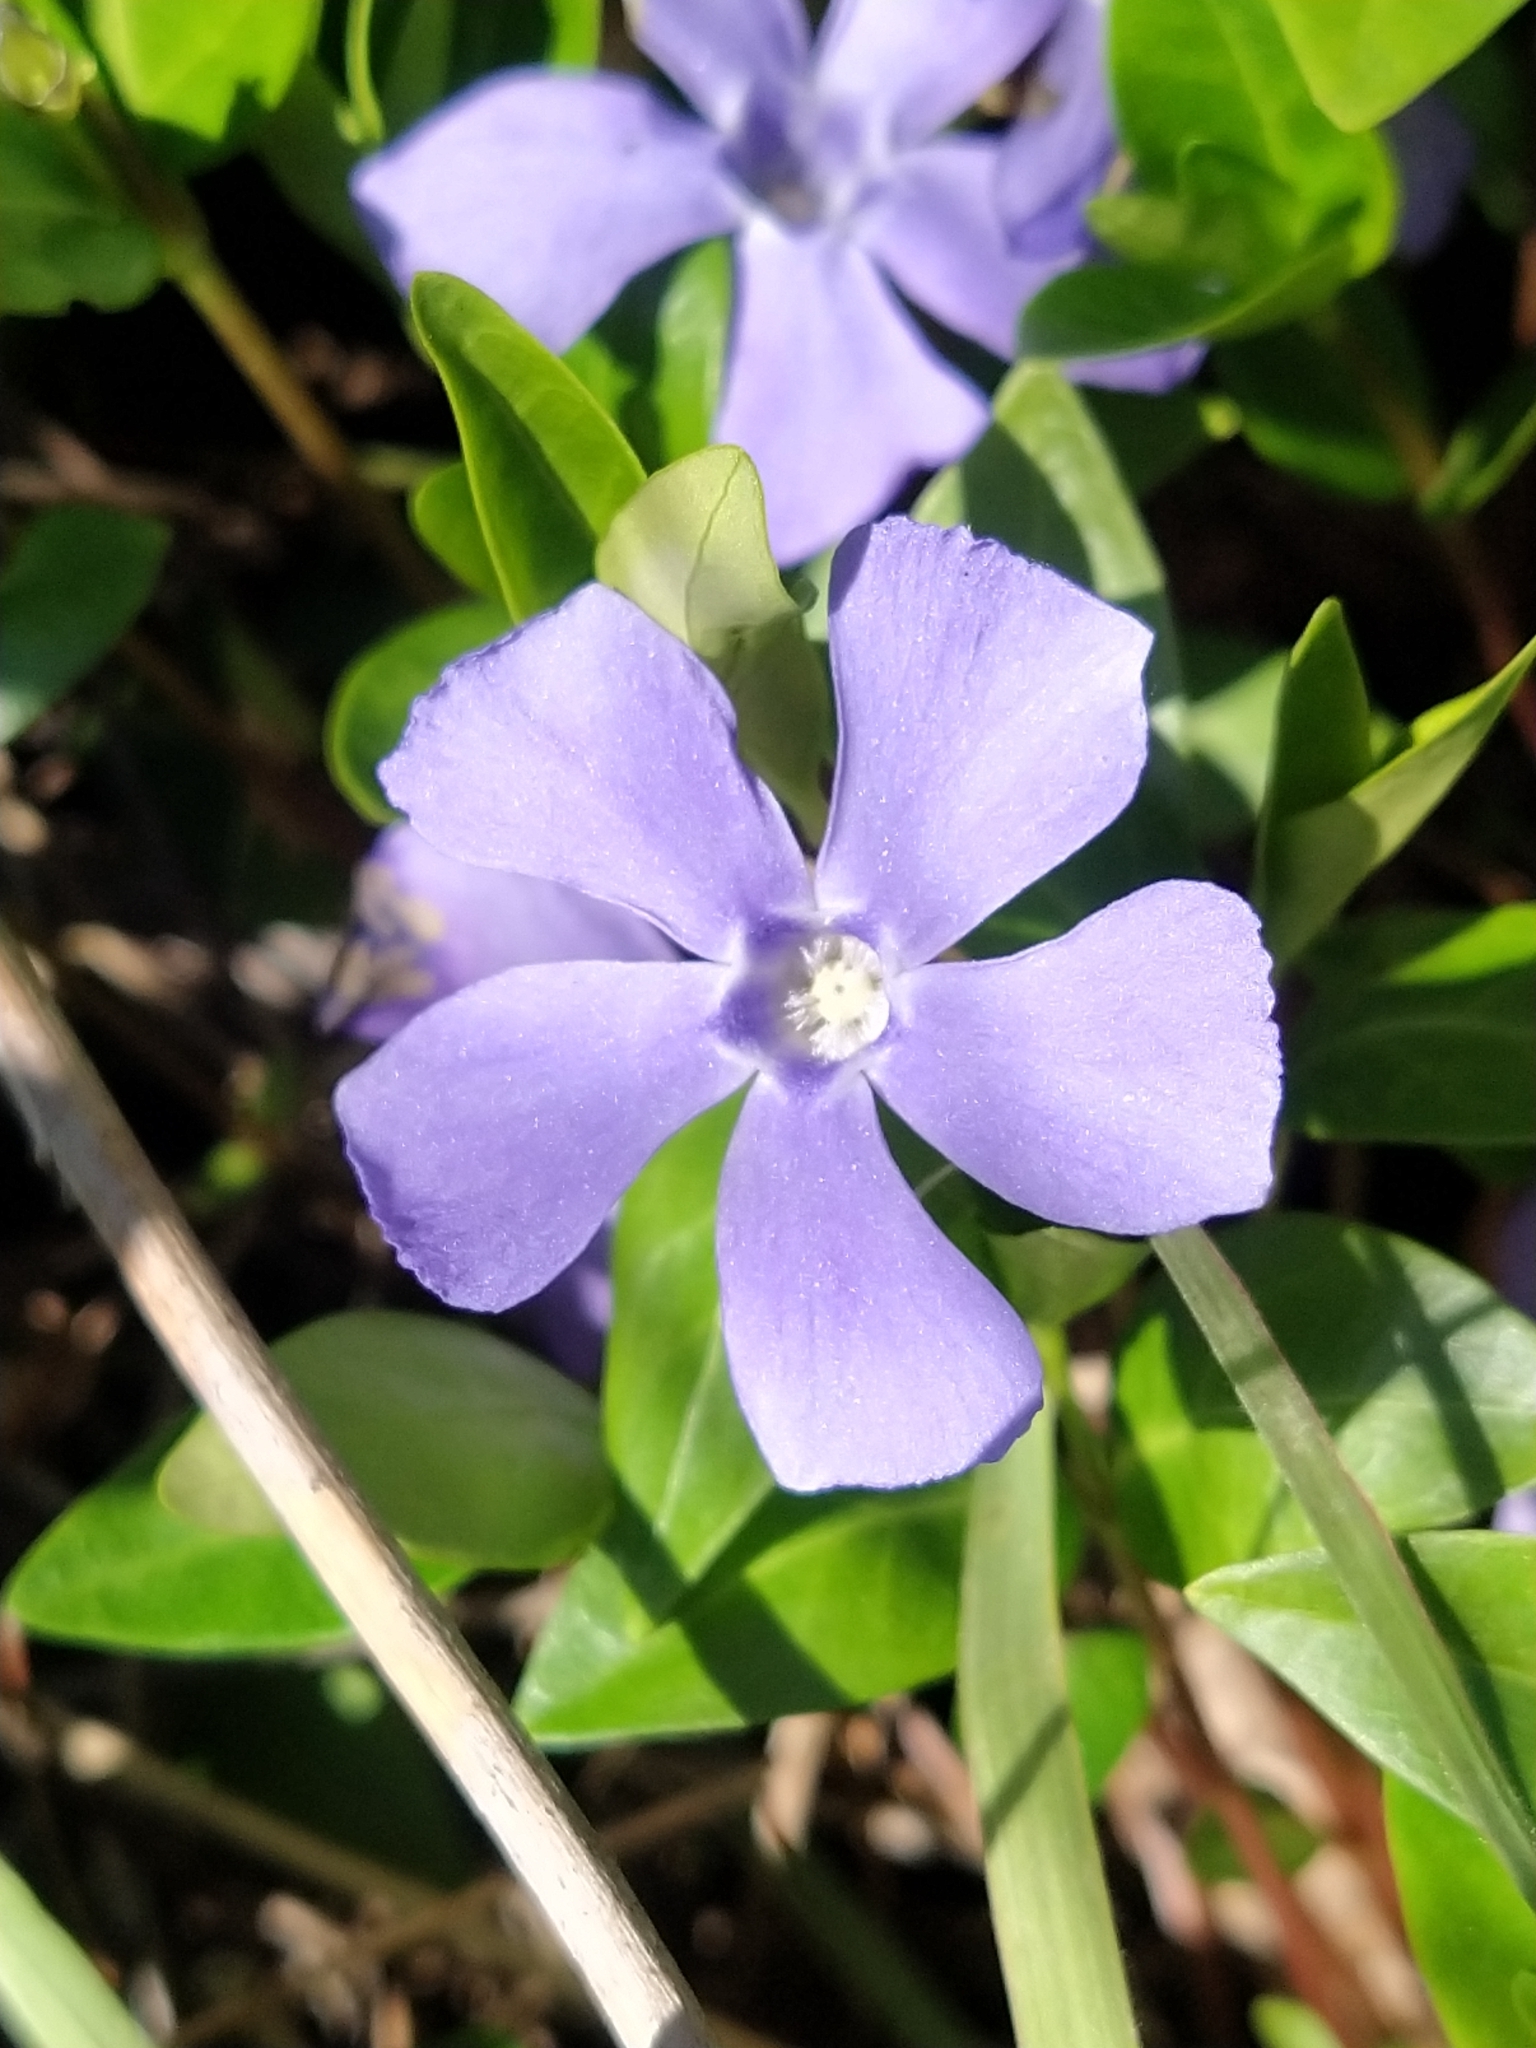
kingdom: Plantae
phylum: Tracheophyta
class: Magnoliopsida
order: Gentianales
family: Apocynaceae
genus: Vinca
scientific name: Vinca minor
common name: Lesser periwinkle
